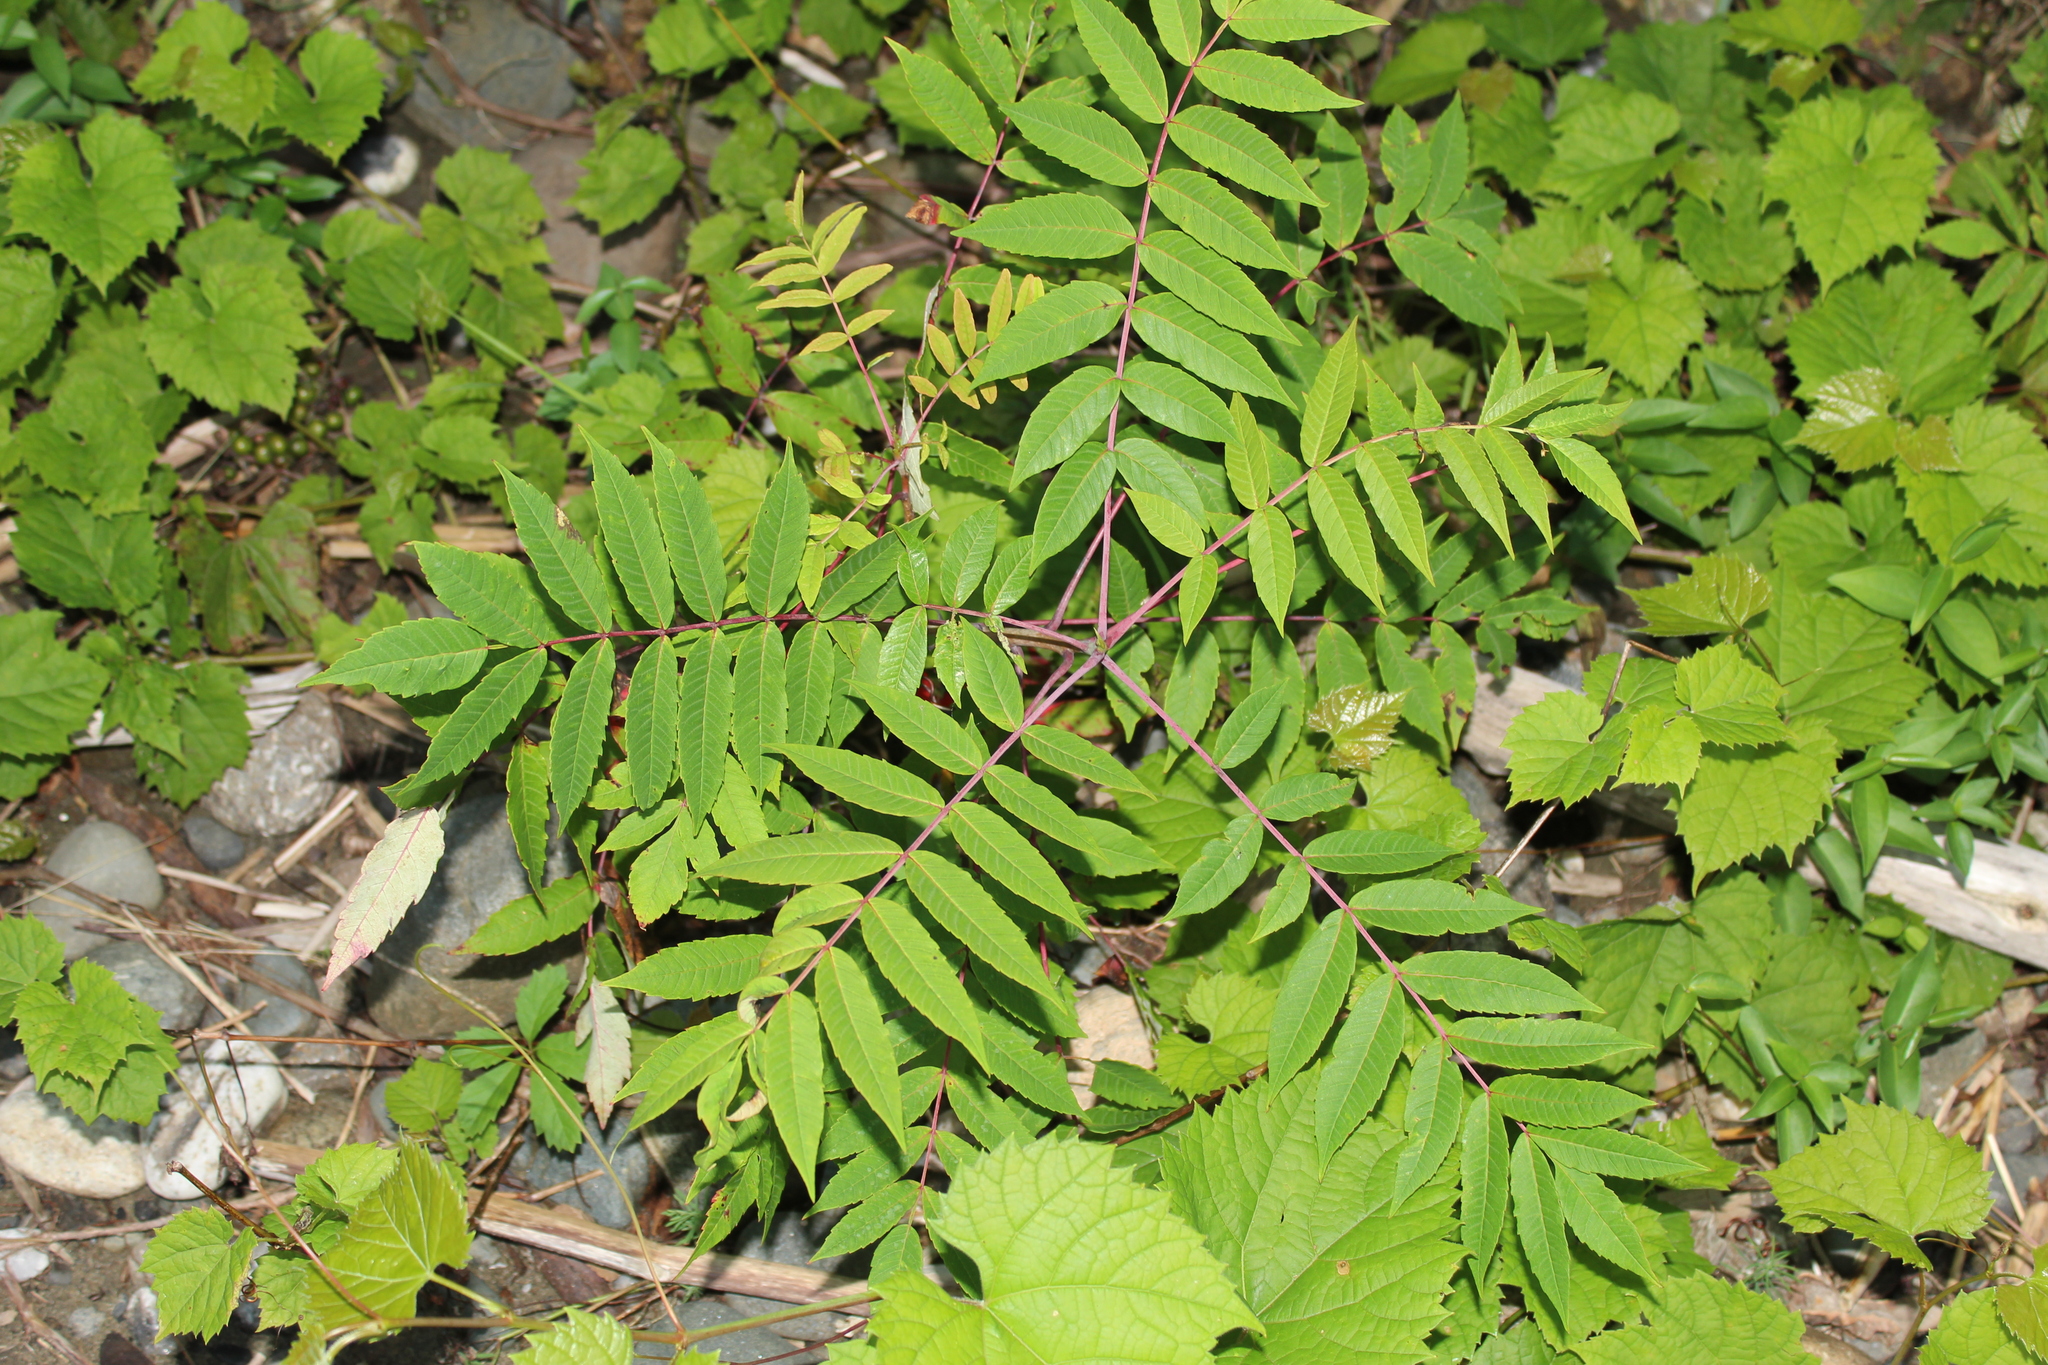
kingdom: Plantae
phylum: Tracheophyta
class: Magnoliopsida
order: Sapindales
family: Anacardiaceae
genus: Rhus
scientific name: Rhus glabra
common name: Scarlet sumac
